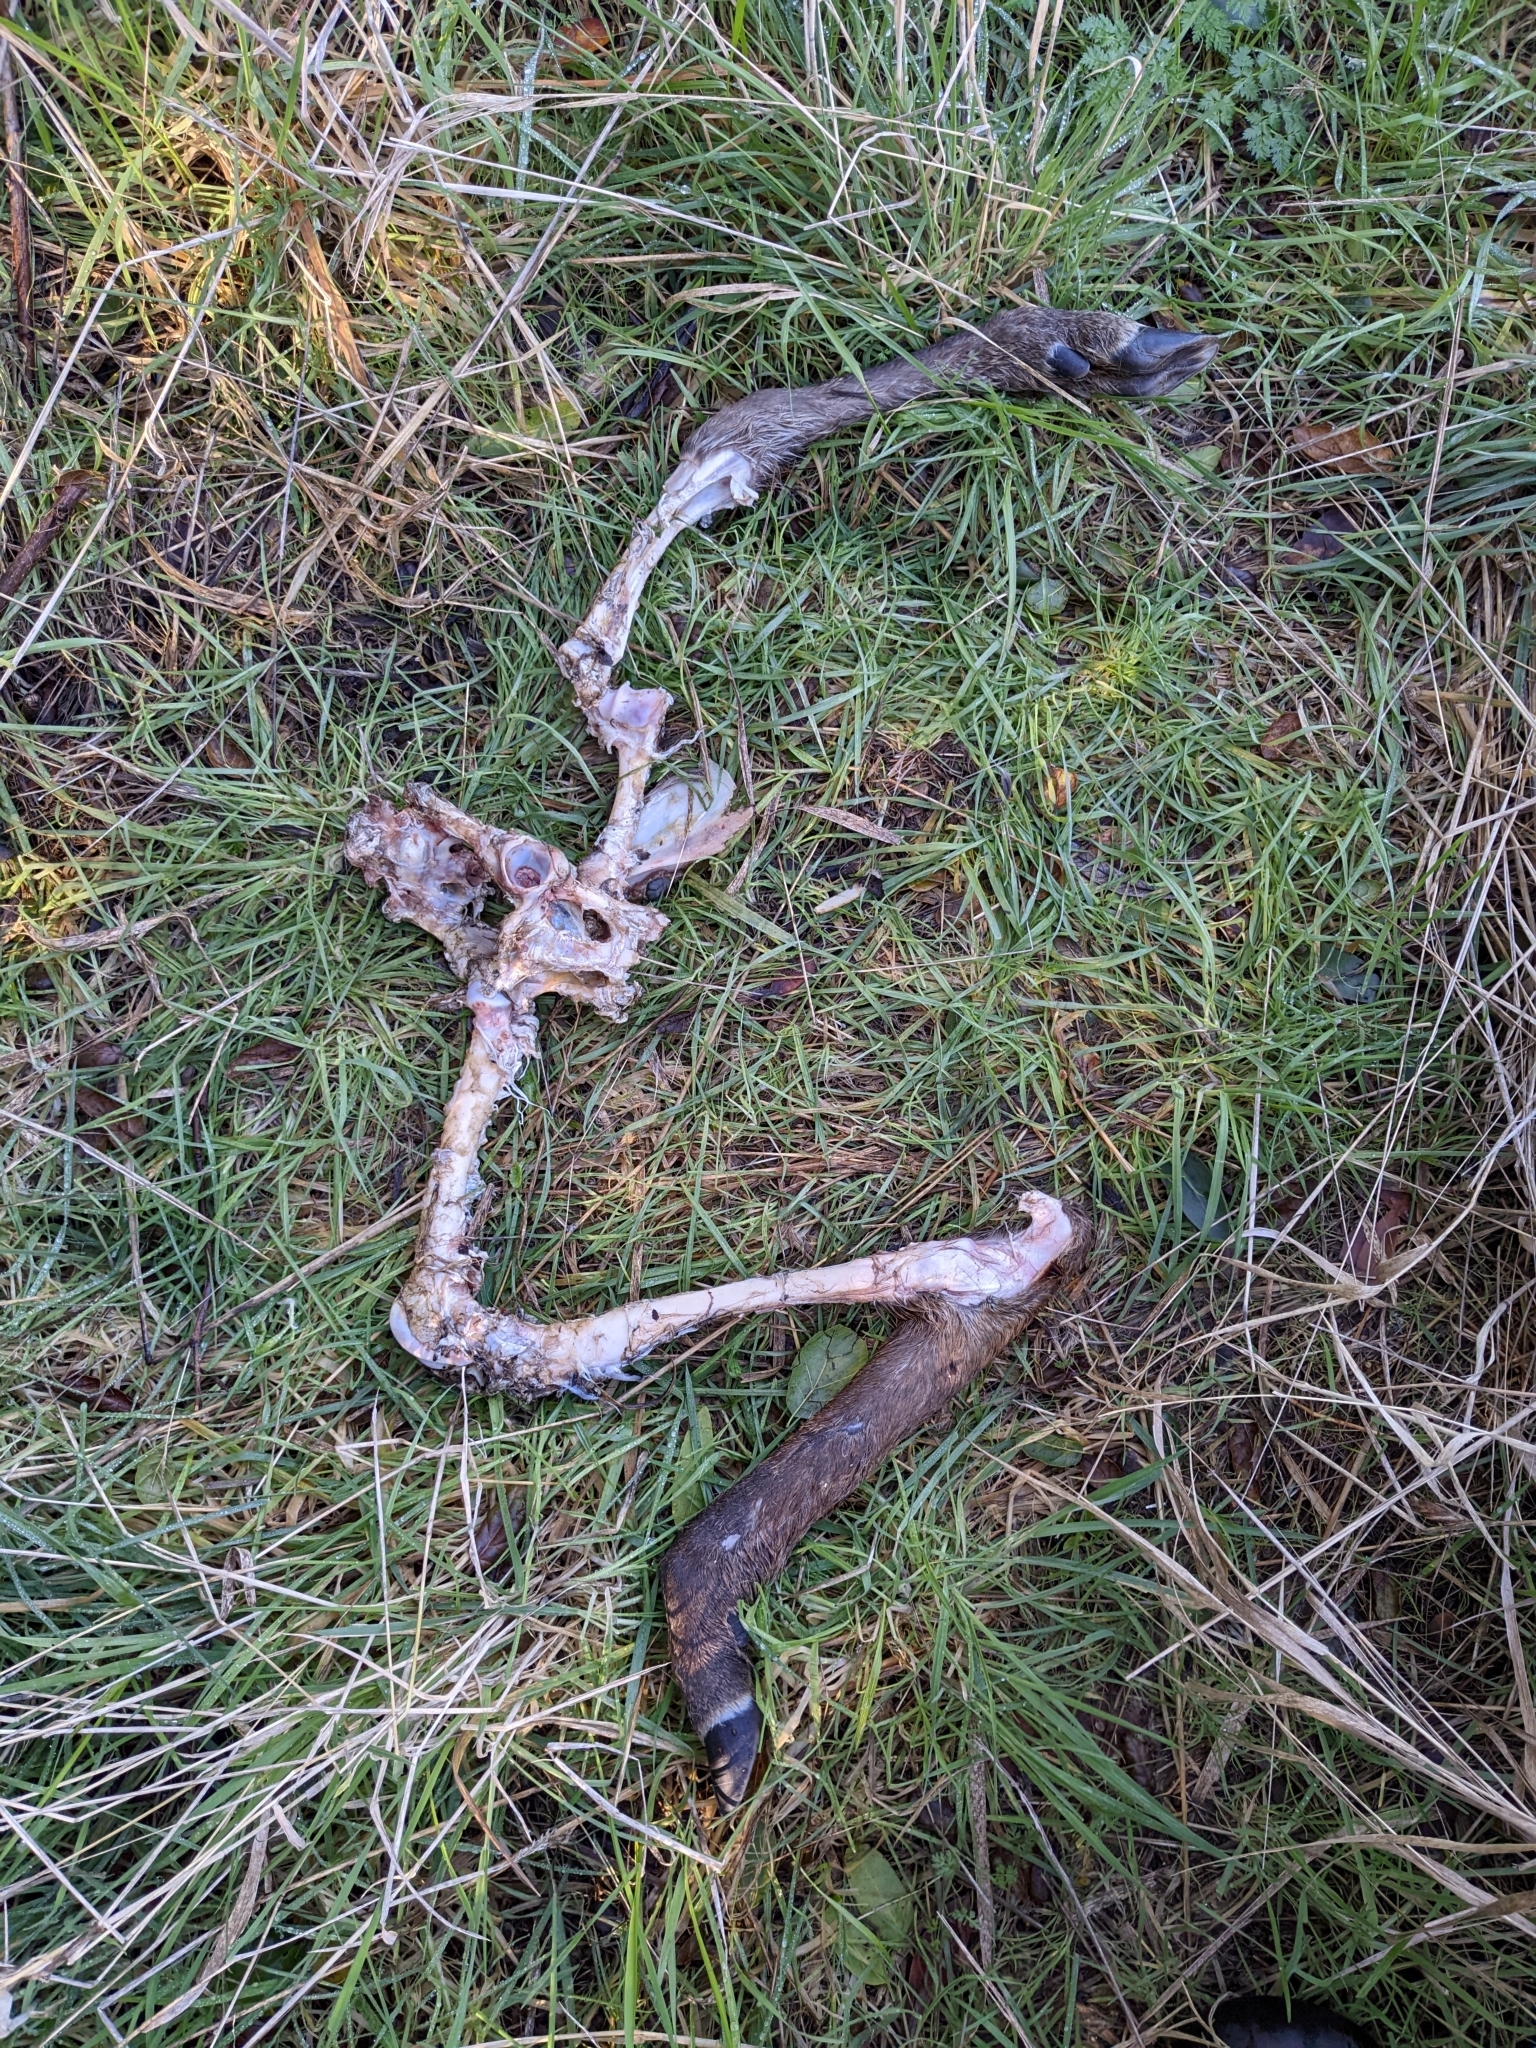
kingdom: Animalia
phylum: Chordata
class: Mammalia
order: Artiodactyla
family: Cervidae
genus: Odocoileus
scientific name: Odocoileus hemionus
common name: Mule deer
